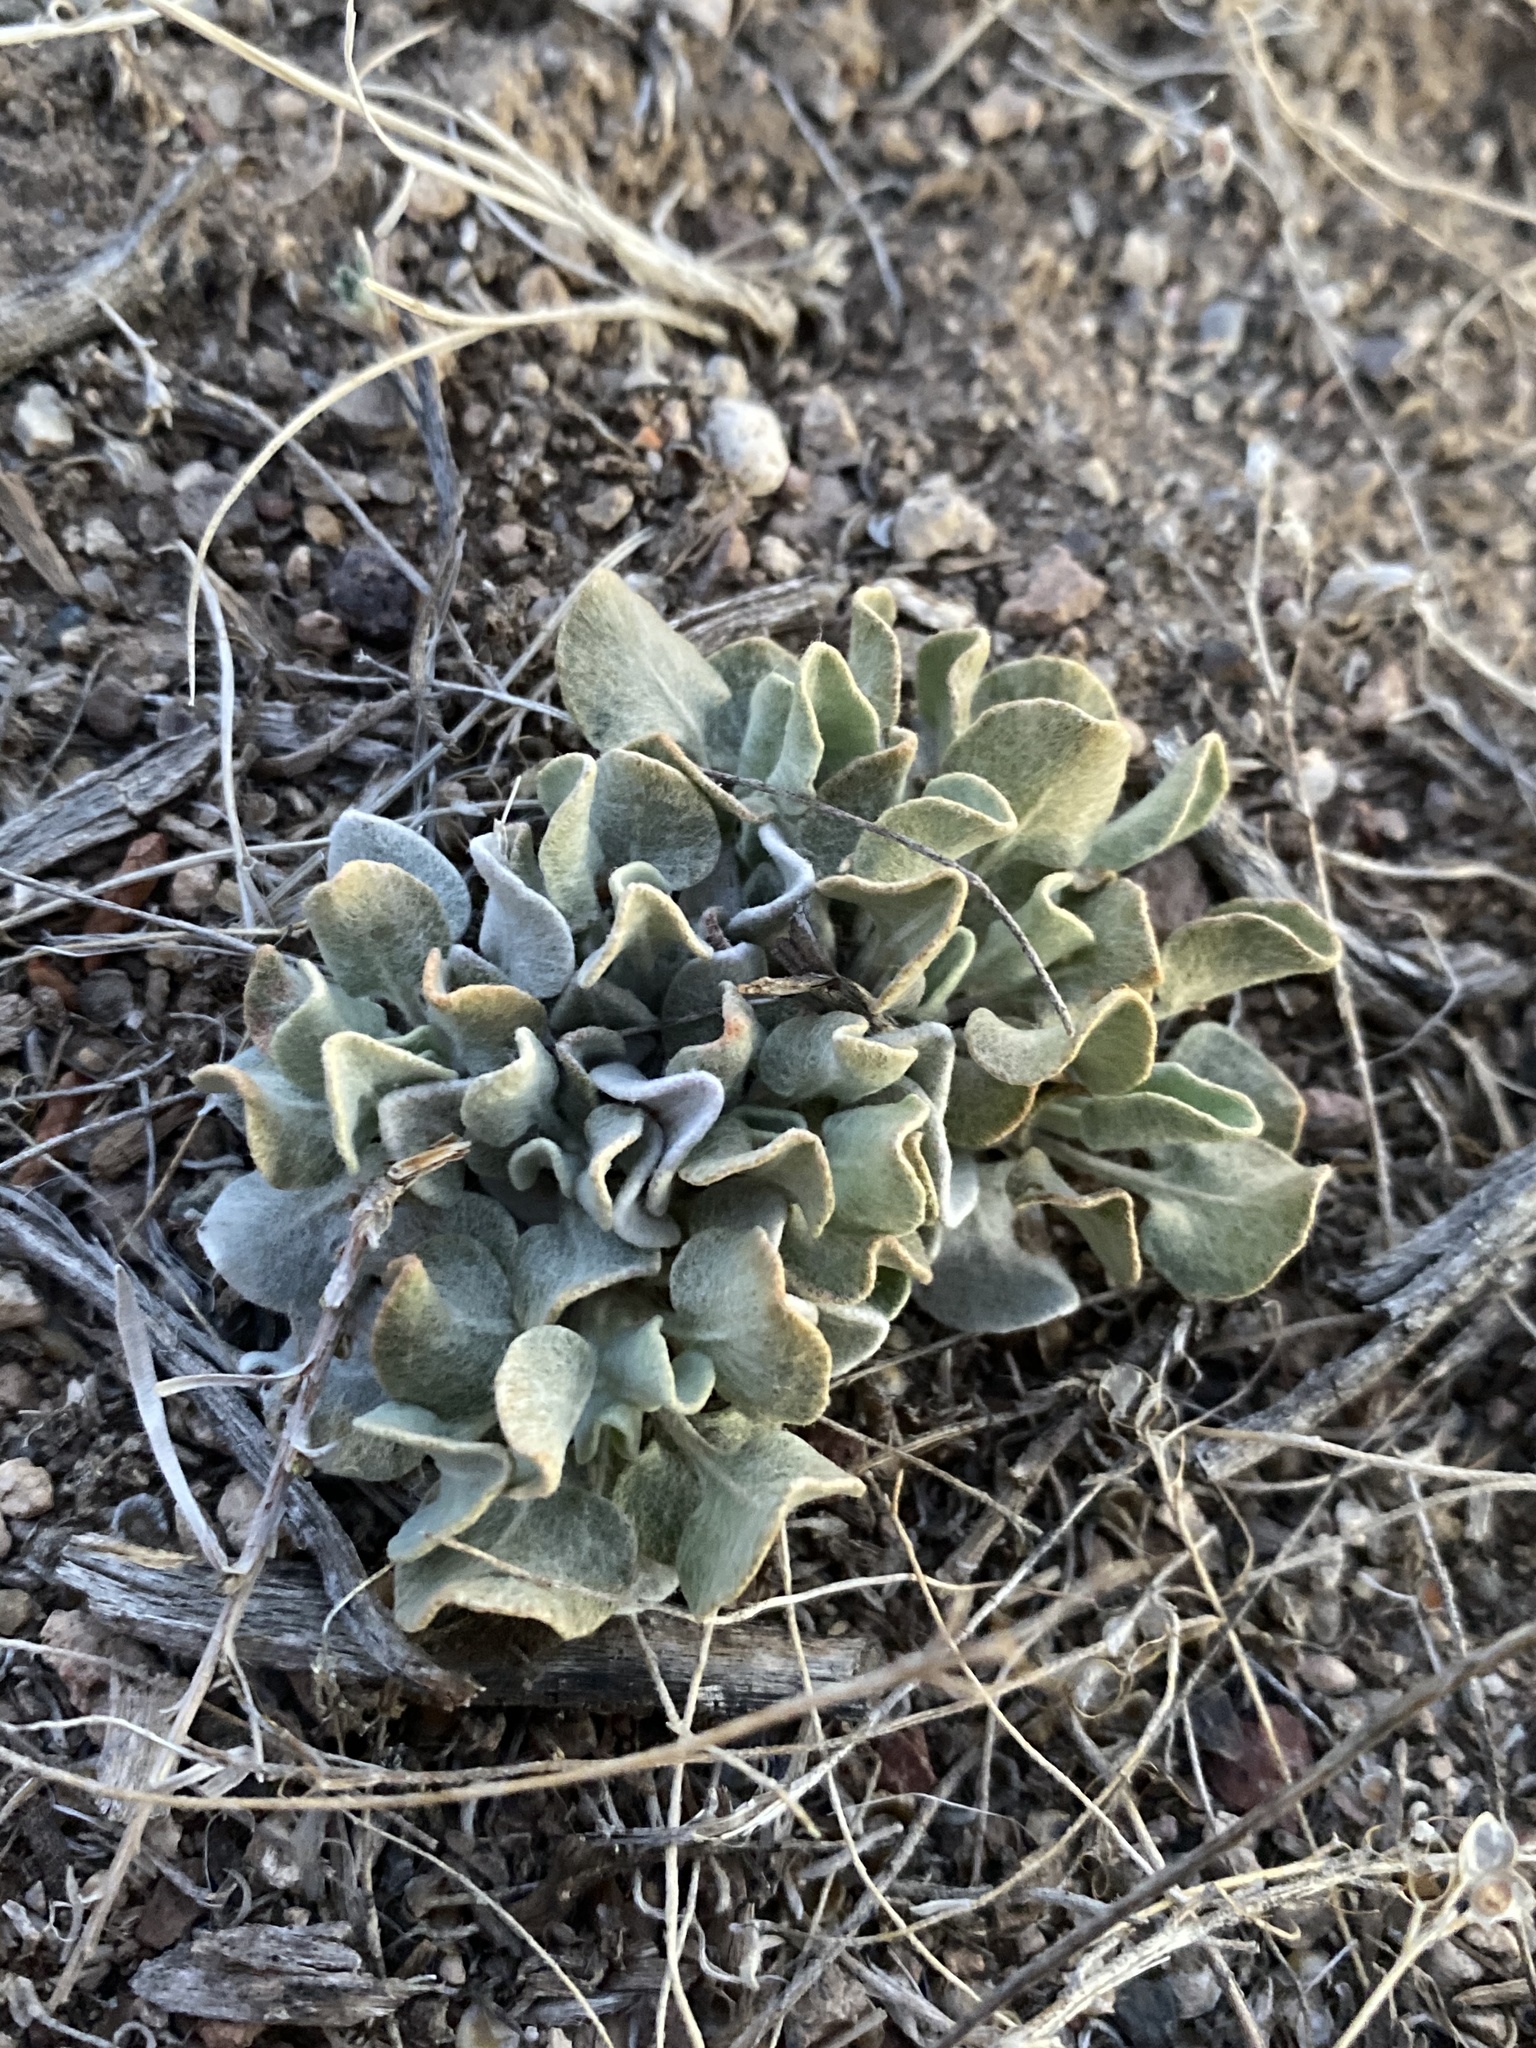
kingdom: Plantae
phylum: Tracheophyta
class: Magnoliopsida
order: Caryophyllales
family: Polygonaceae
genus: Eriogonum
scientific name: Eriogonum ovalifolium
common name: Cushion buckwheat
